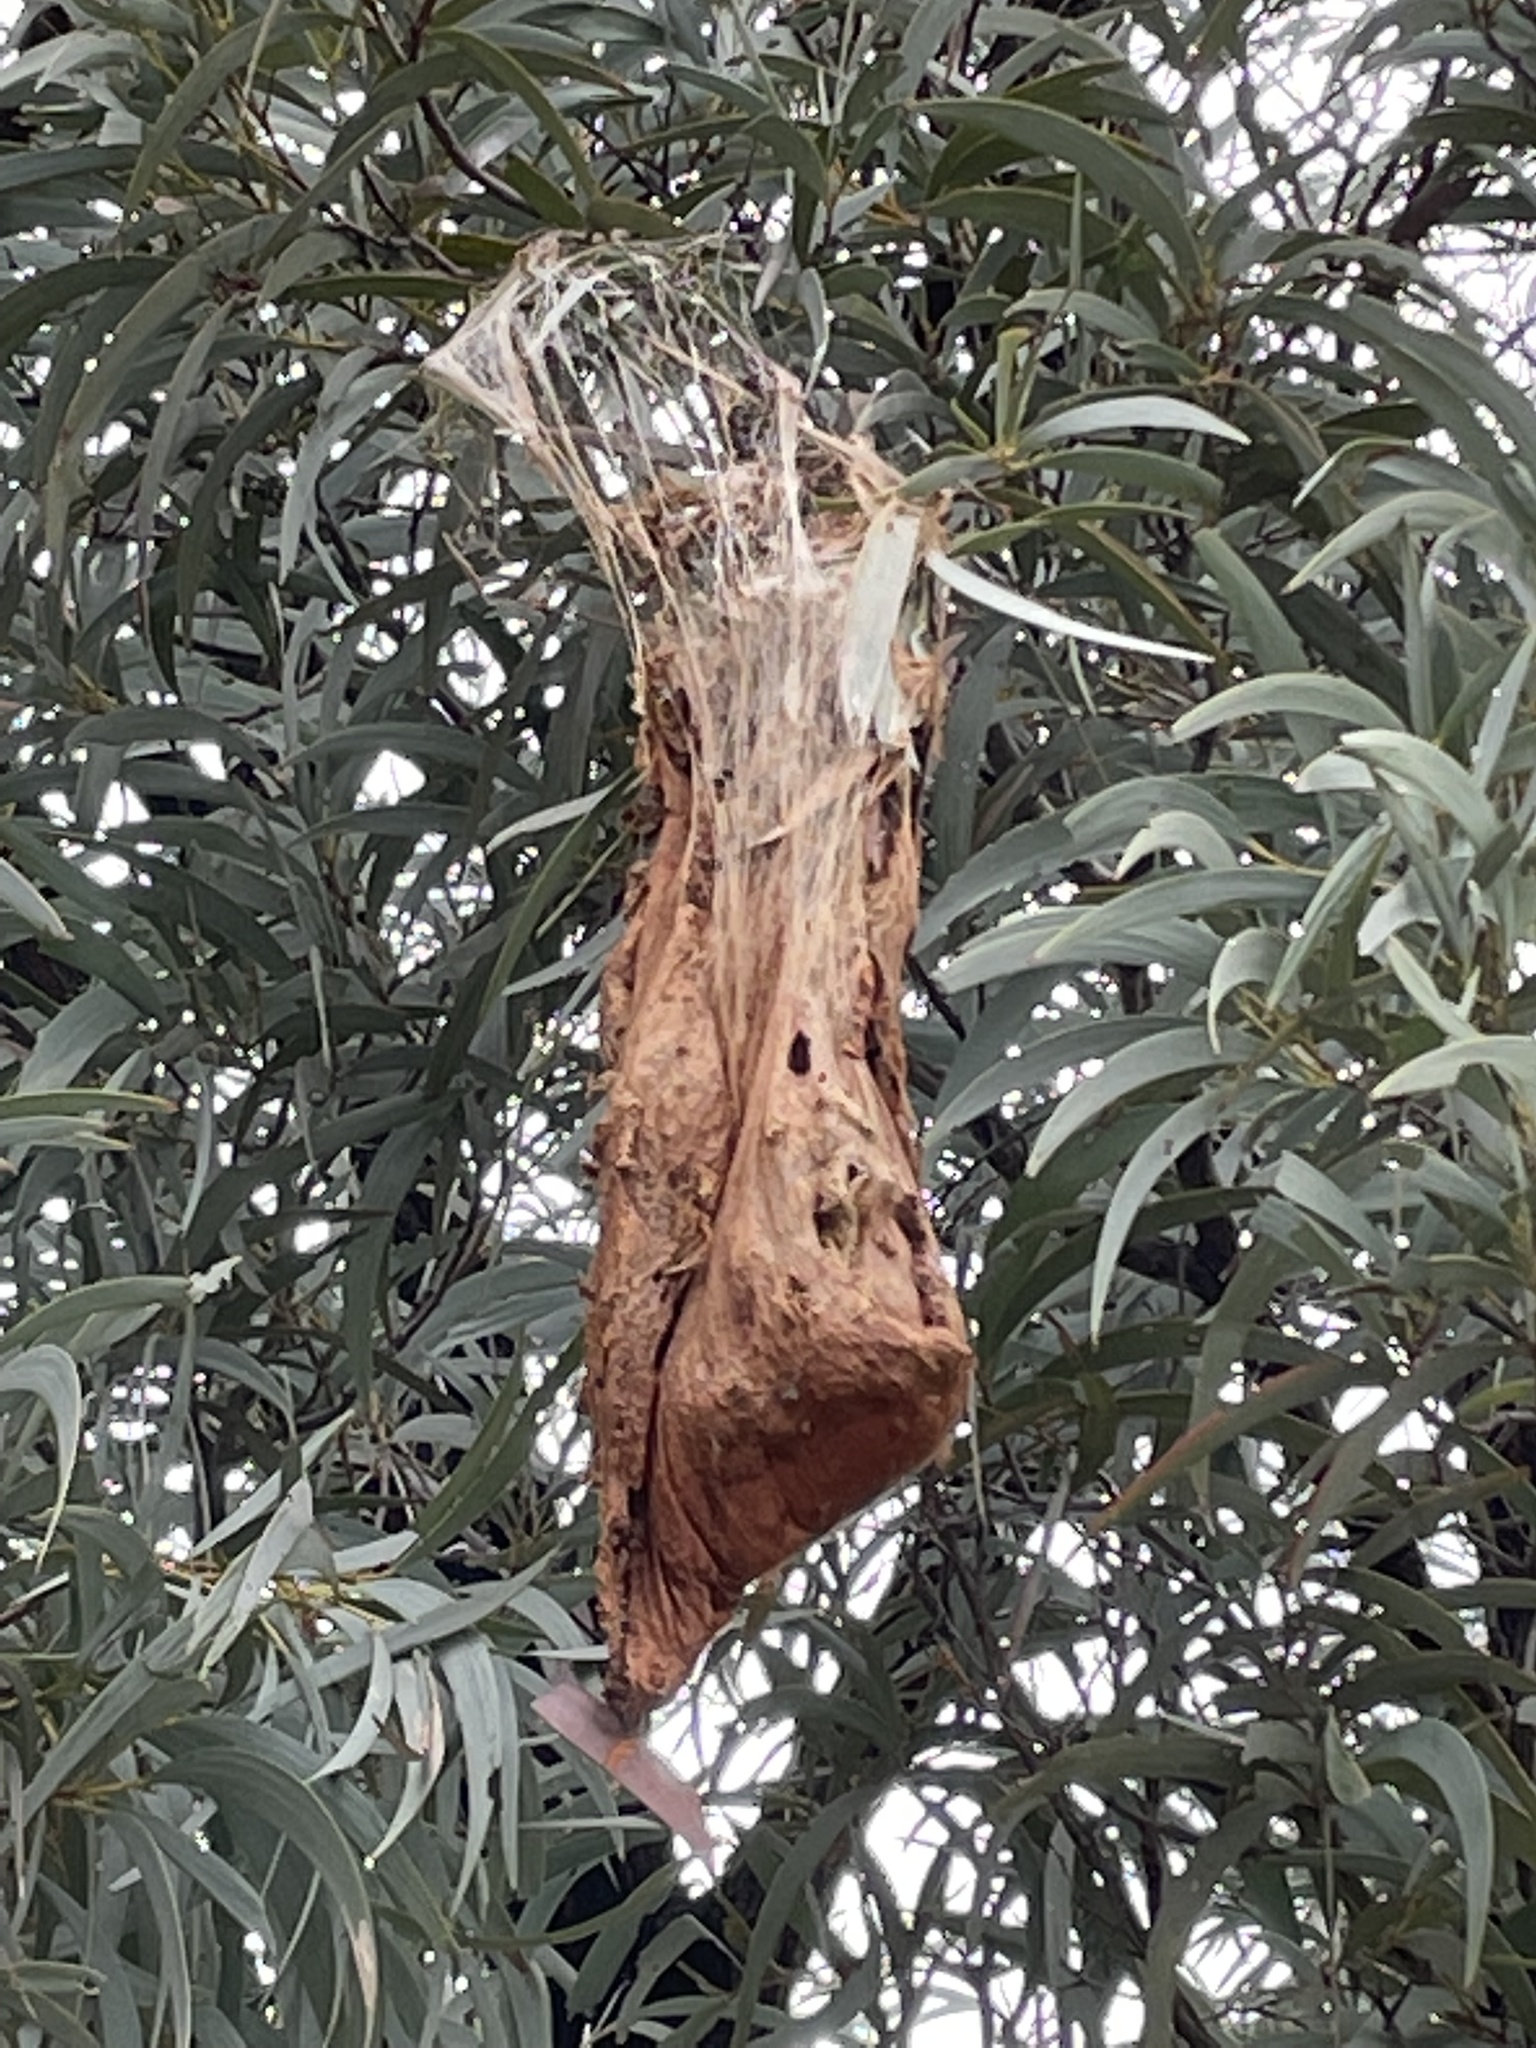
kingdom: Animalia
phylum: Arthropoda
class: Insecta
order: Lepidoptera
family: Notodontidae
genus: Ochrogaster
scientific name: Ochrogaster lunifer
